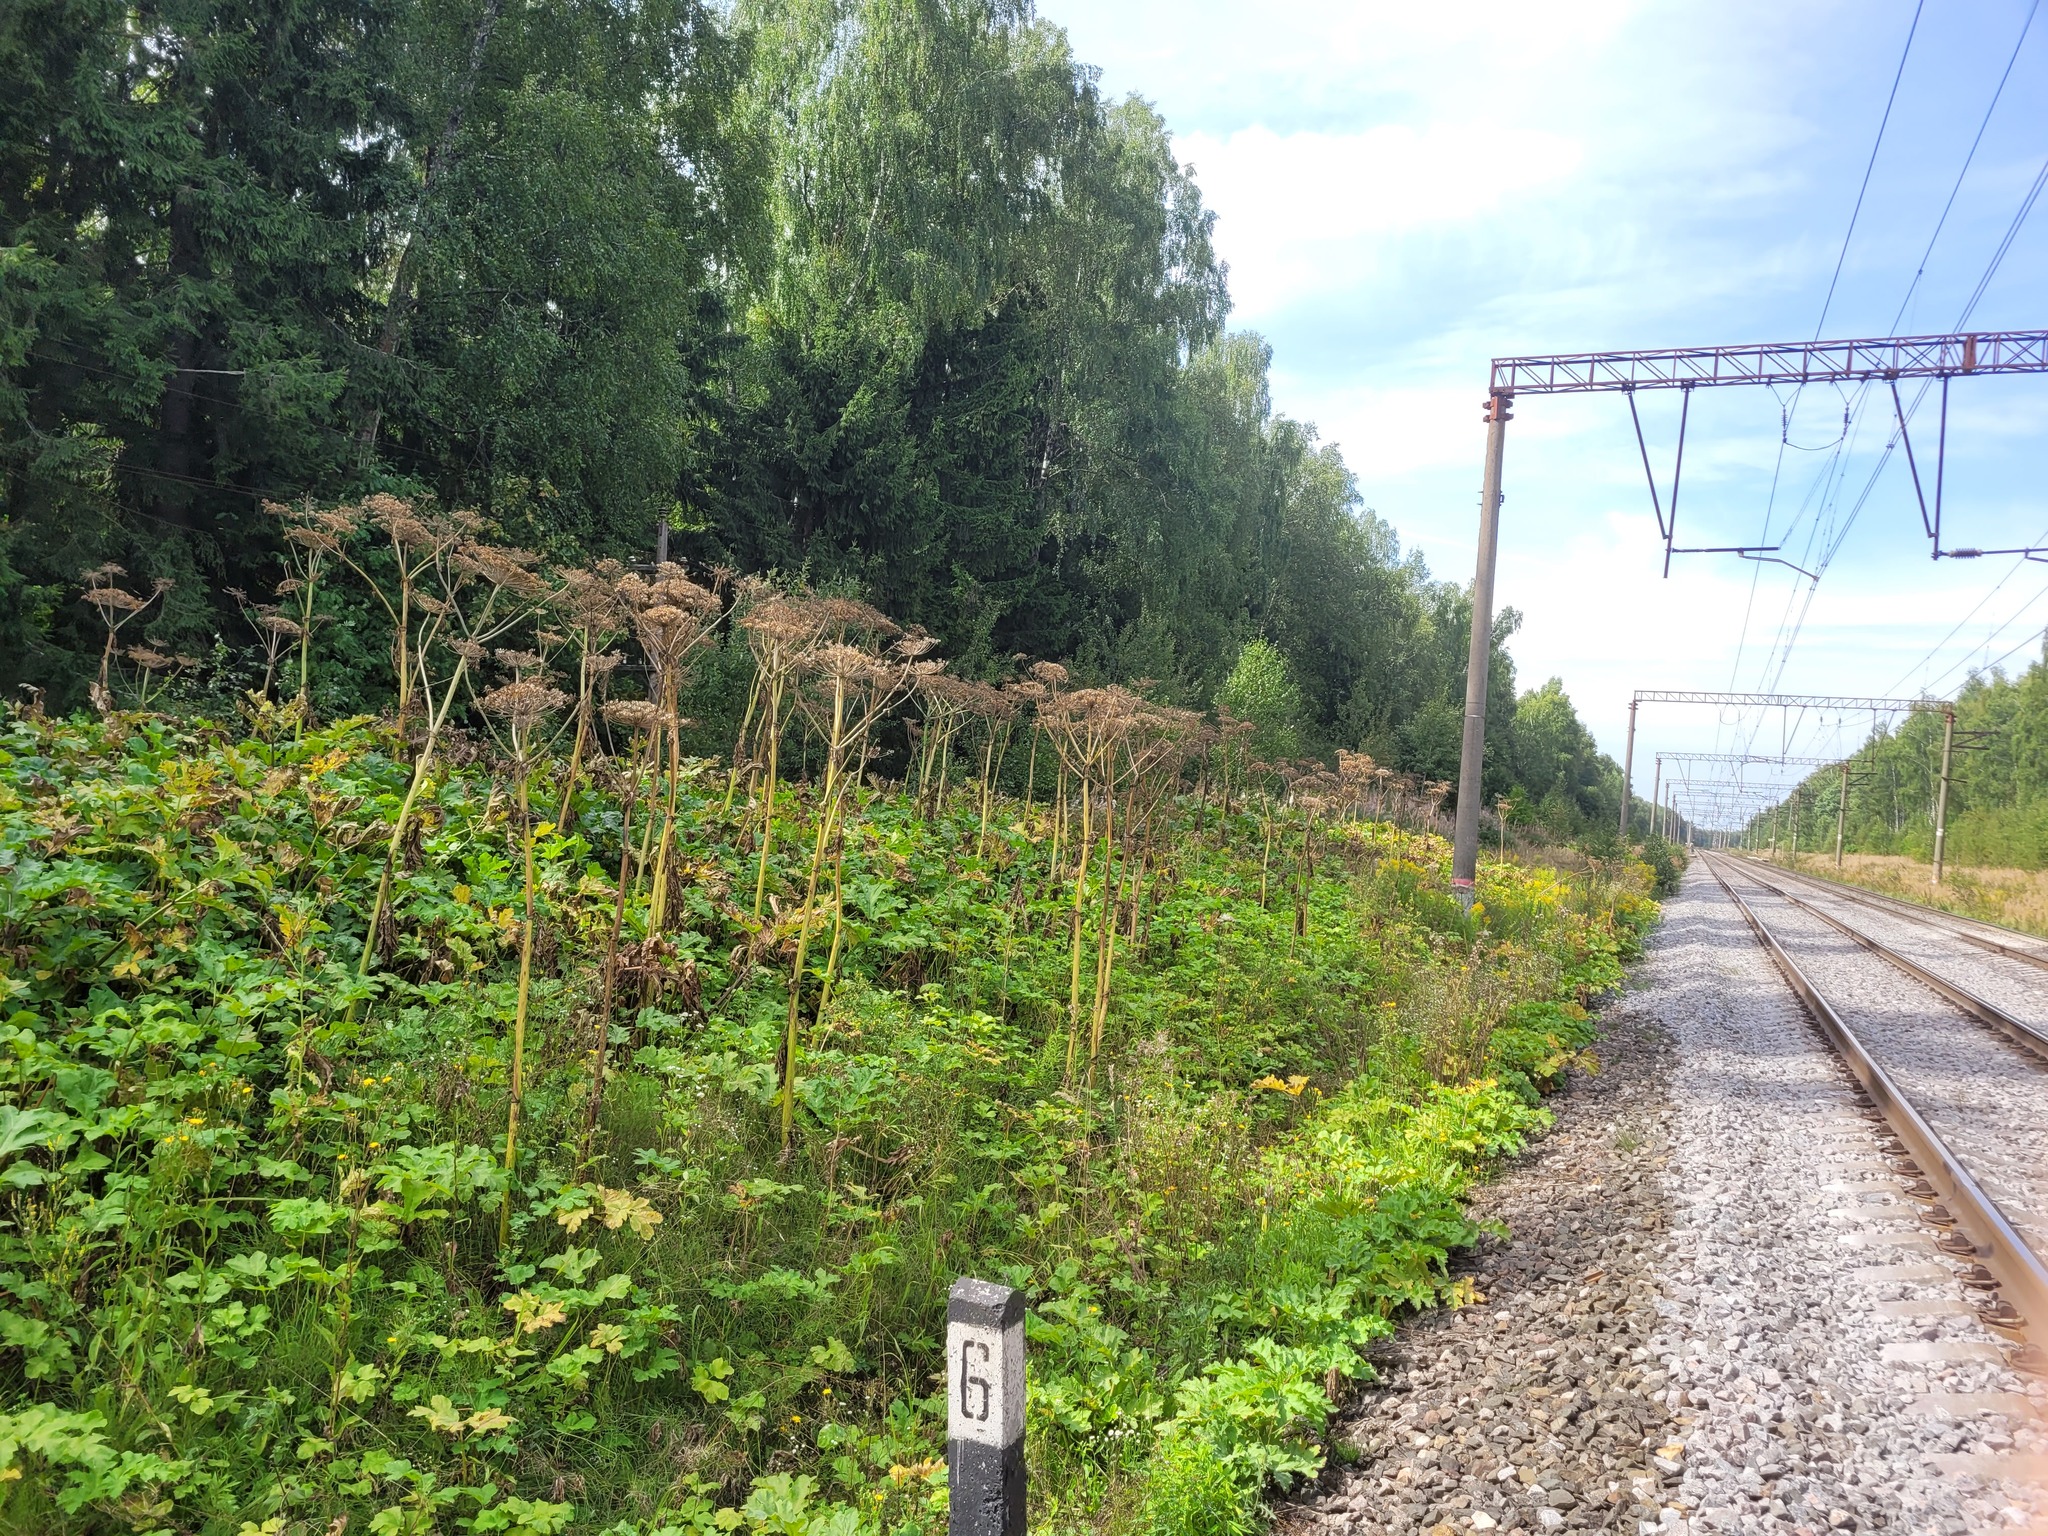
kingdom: Plantae
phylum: Tracheophyta
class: Magnoliopsida
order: Apiales
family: Apiaceae
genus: Heracleum
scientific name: Heracleum sosnowskyi
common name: Sosnowsky's hogweed
